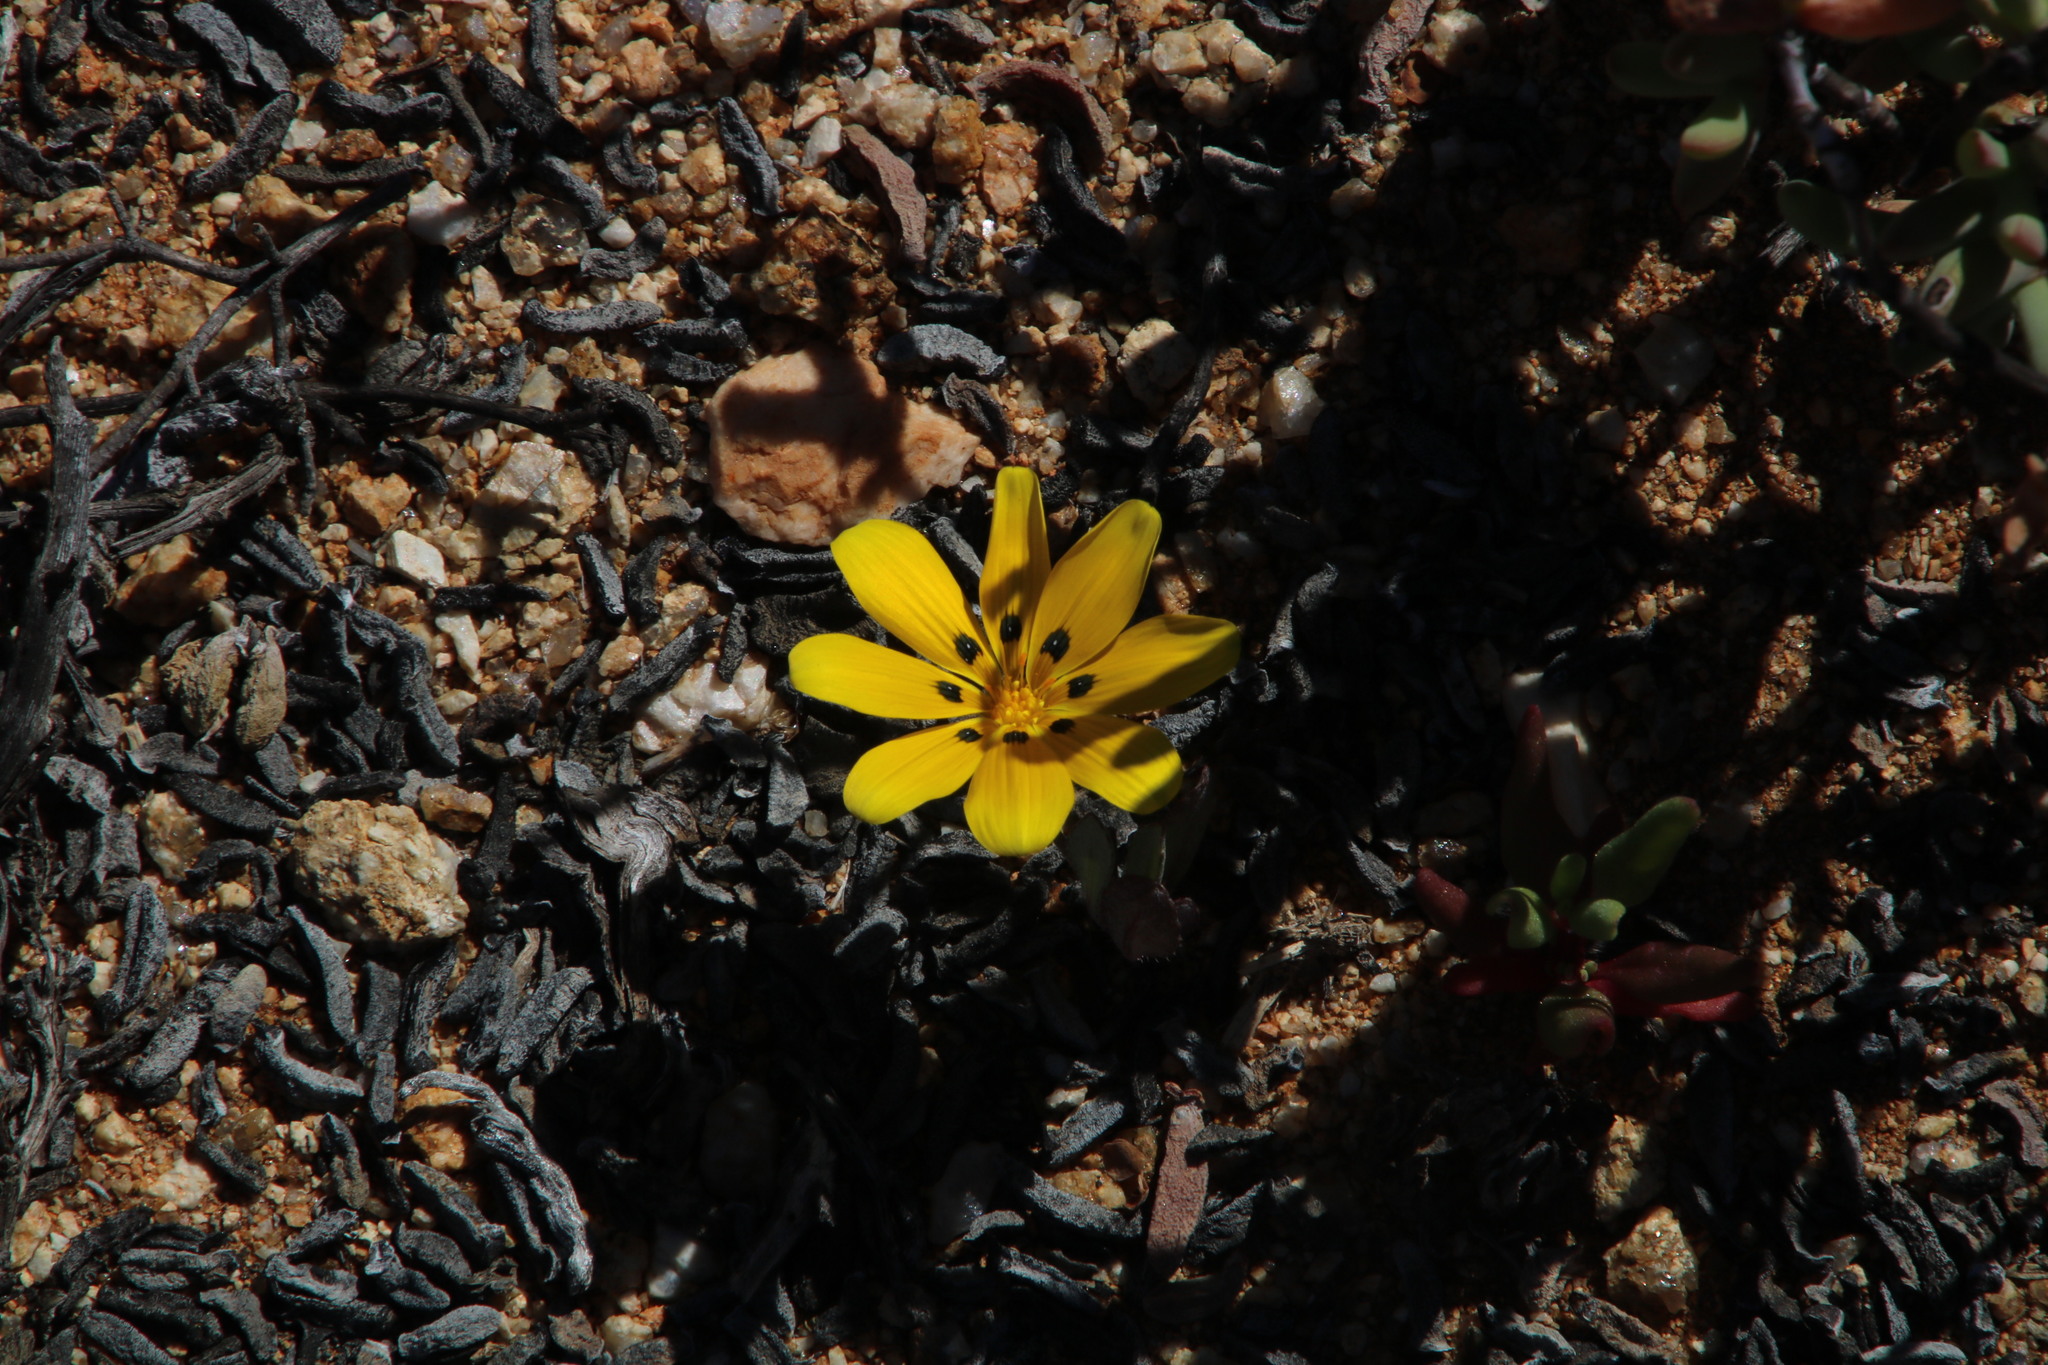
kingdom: Plantae
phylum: Tracheophyta
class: Magnoliopsida
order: Asterales
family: Asteraceae
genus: Gazania
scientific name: Gazania lichtensteinii
